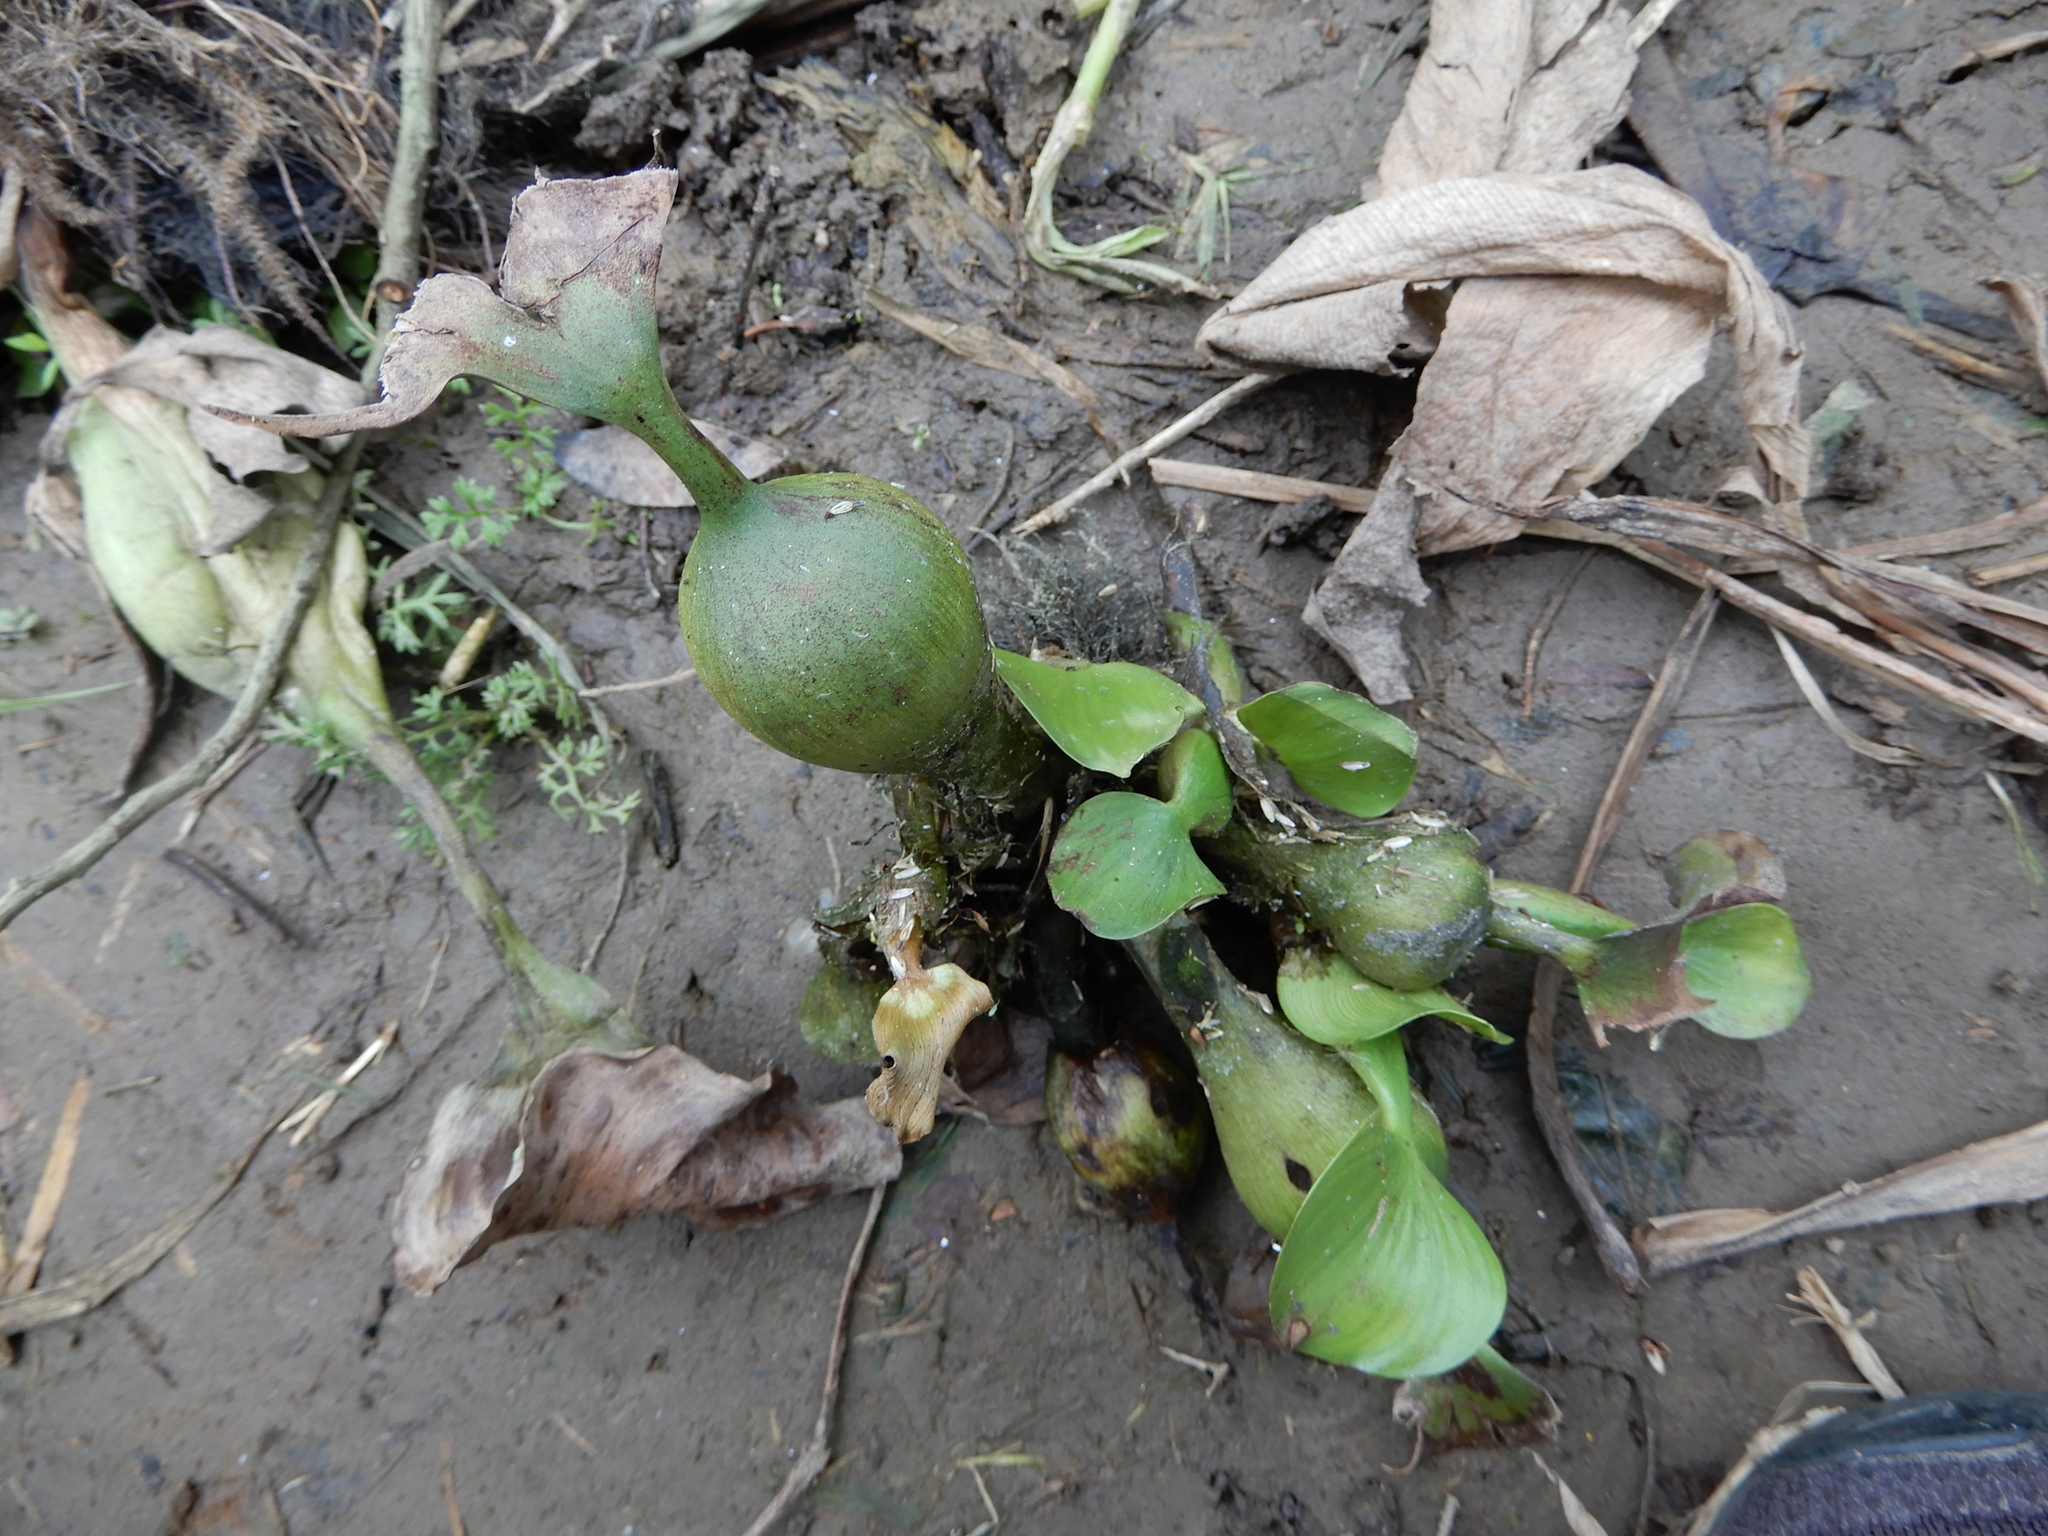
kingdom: Plantae
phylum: Tracheophyta
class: Liliopsida
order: Commelinales
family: Pontederiaceae
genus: Pontederia
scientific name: Pontederia crassipes
